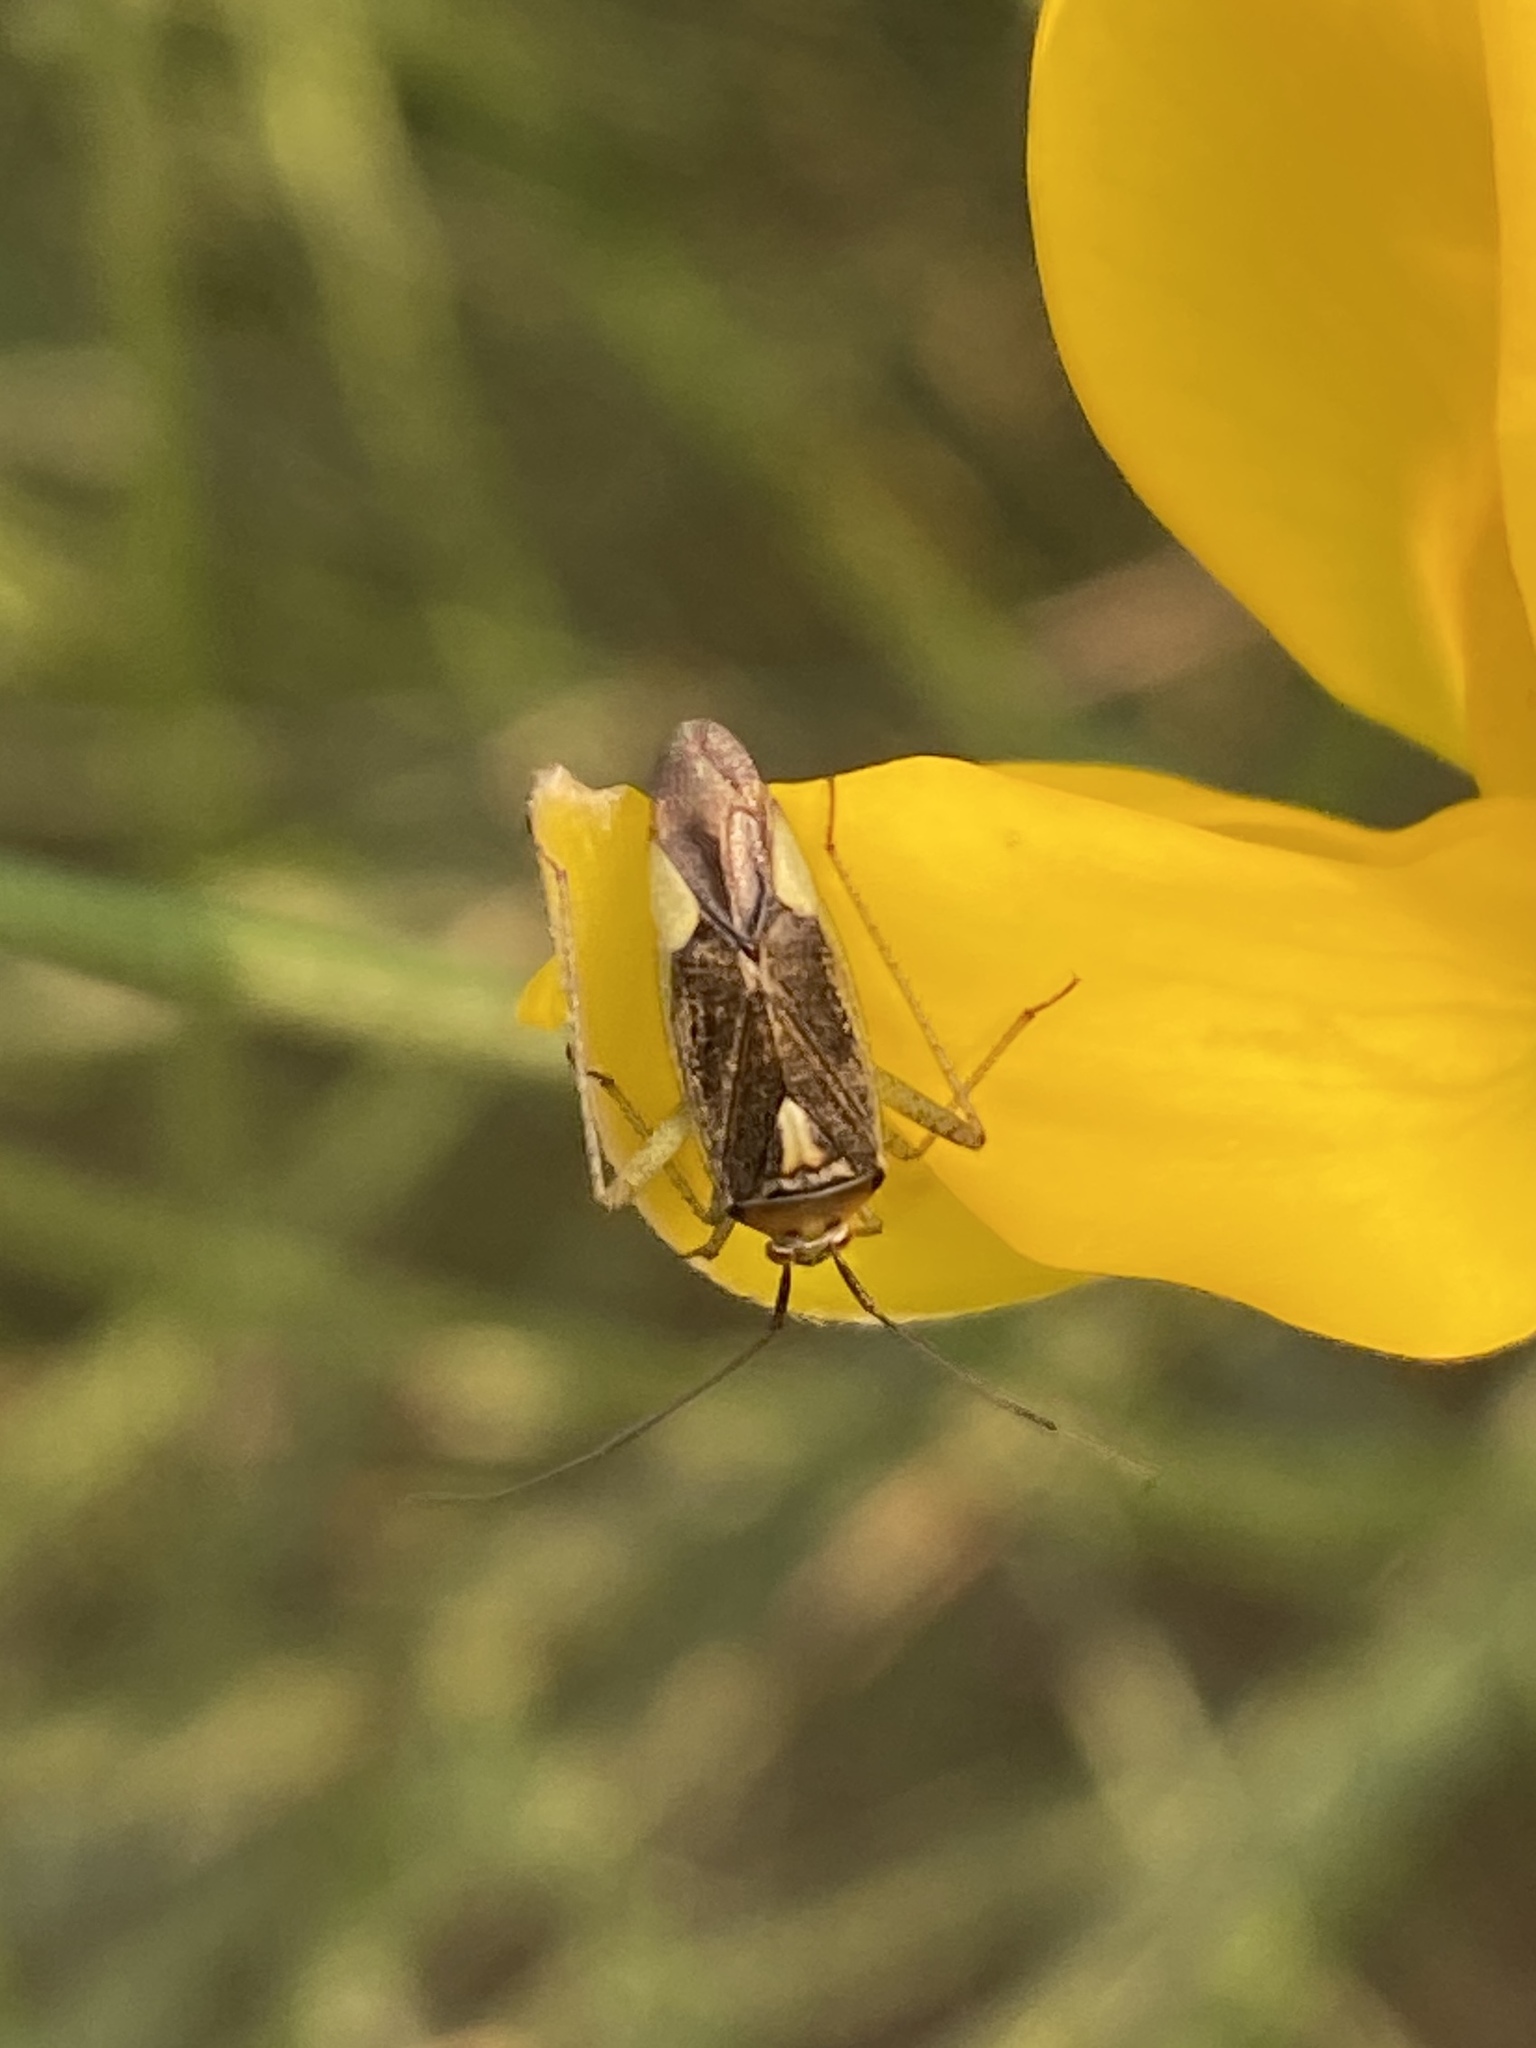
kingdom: Animalia
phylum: Arthropoda
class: Insecta
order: Hemiptera
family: Miridae
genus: Closterotomus
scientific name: Closterotomus trivialis
